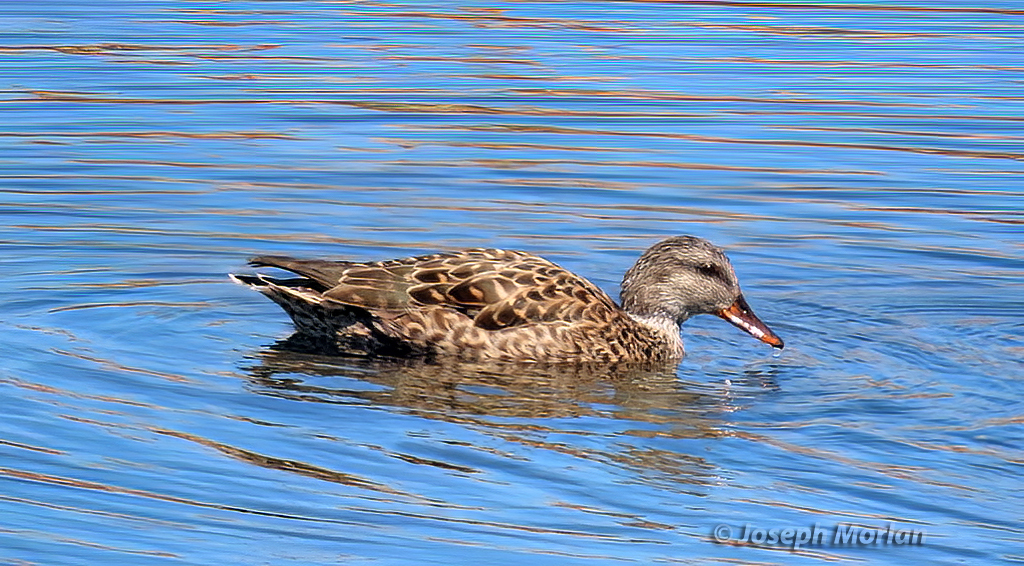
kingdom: Animalia
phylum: Chordata
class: Aves
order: Anseriformes
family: Anatidae
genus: Mareca
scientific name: Mareca strepera
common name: Gadwall
